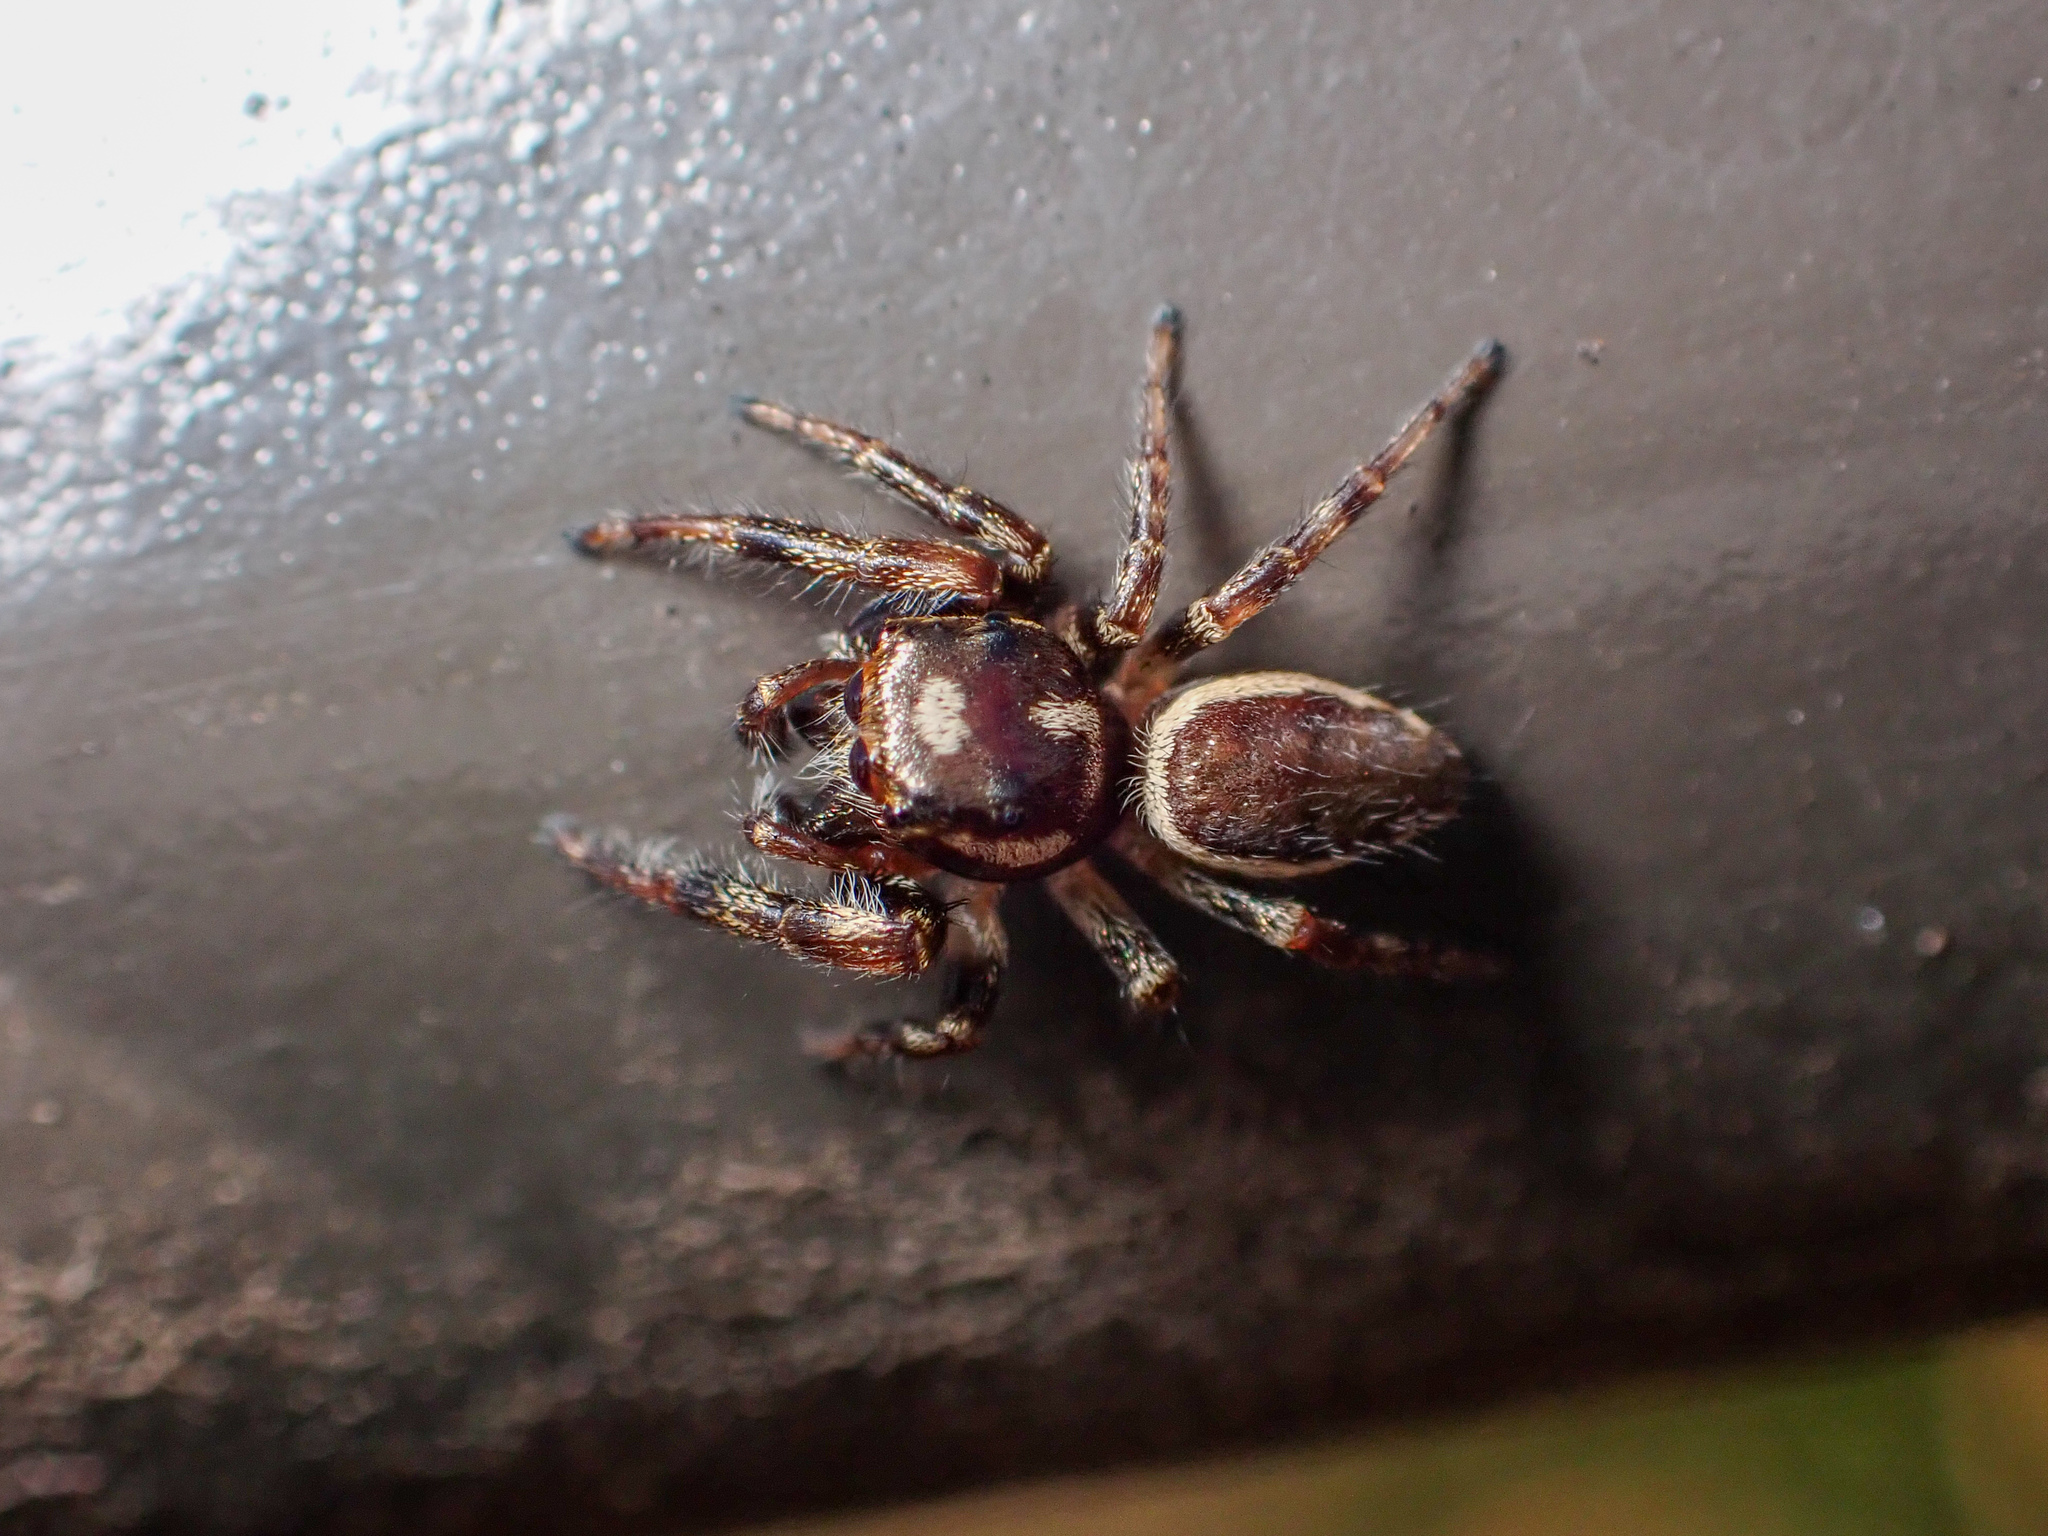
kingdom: Animalia
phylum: Arthropoda
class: Arachnida
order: Araneae
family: Salticidae
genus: Eris
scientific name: Eris militaris
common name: Bronze jumper
